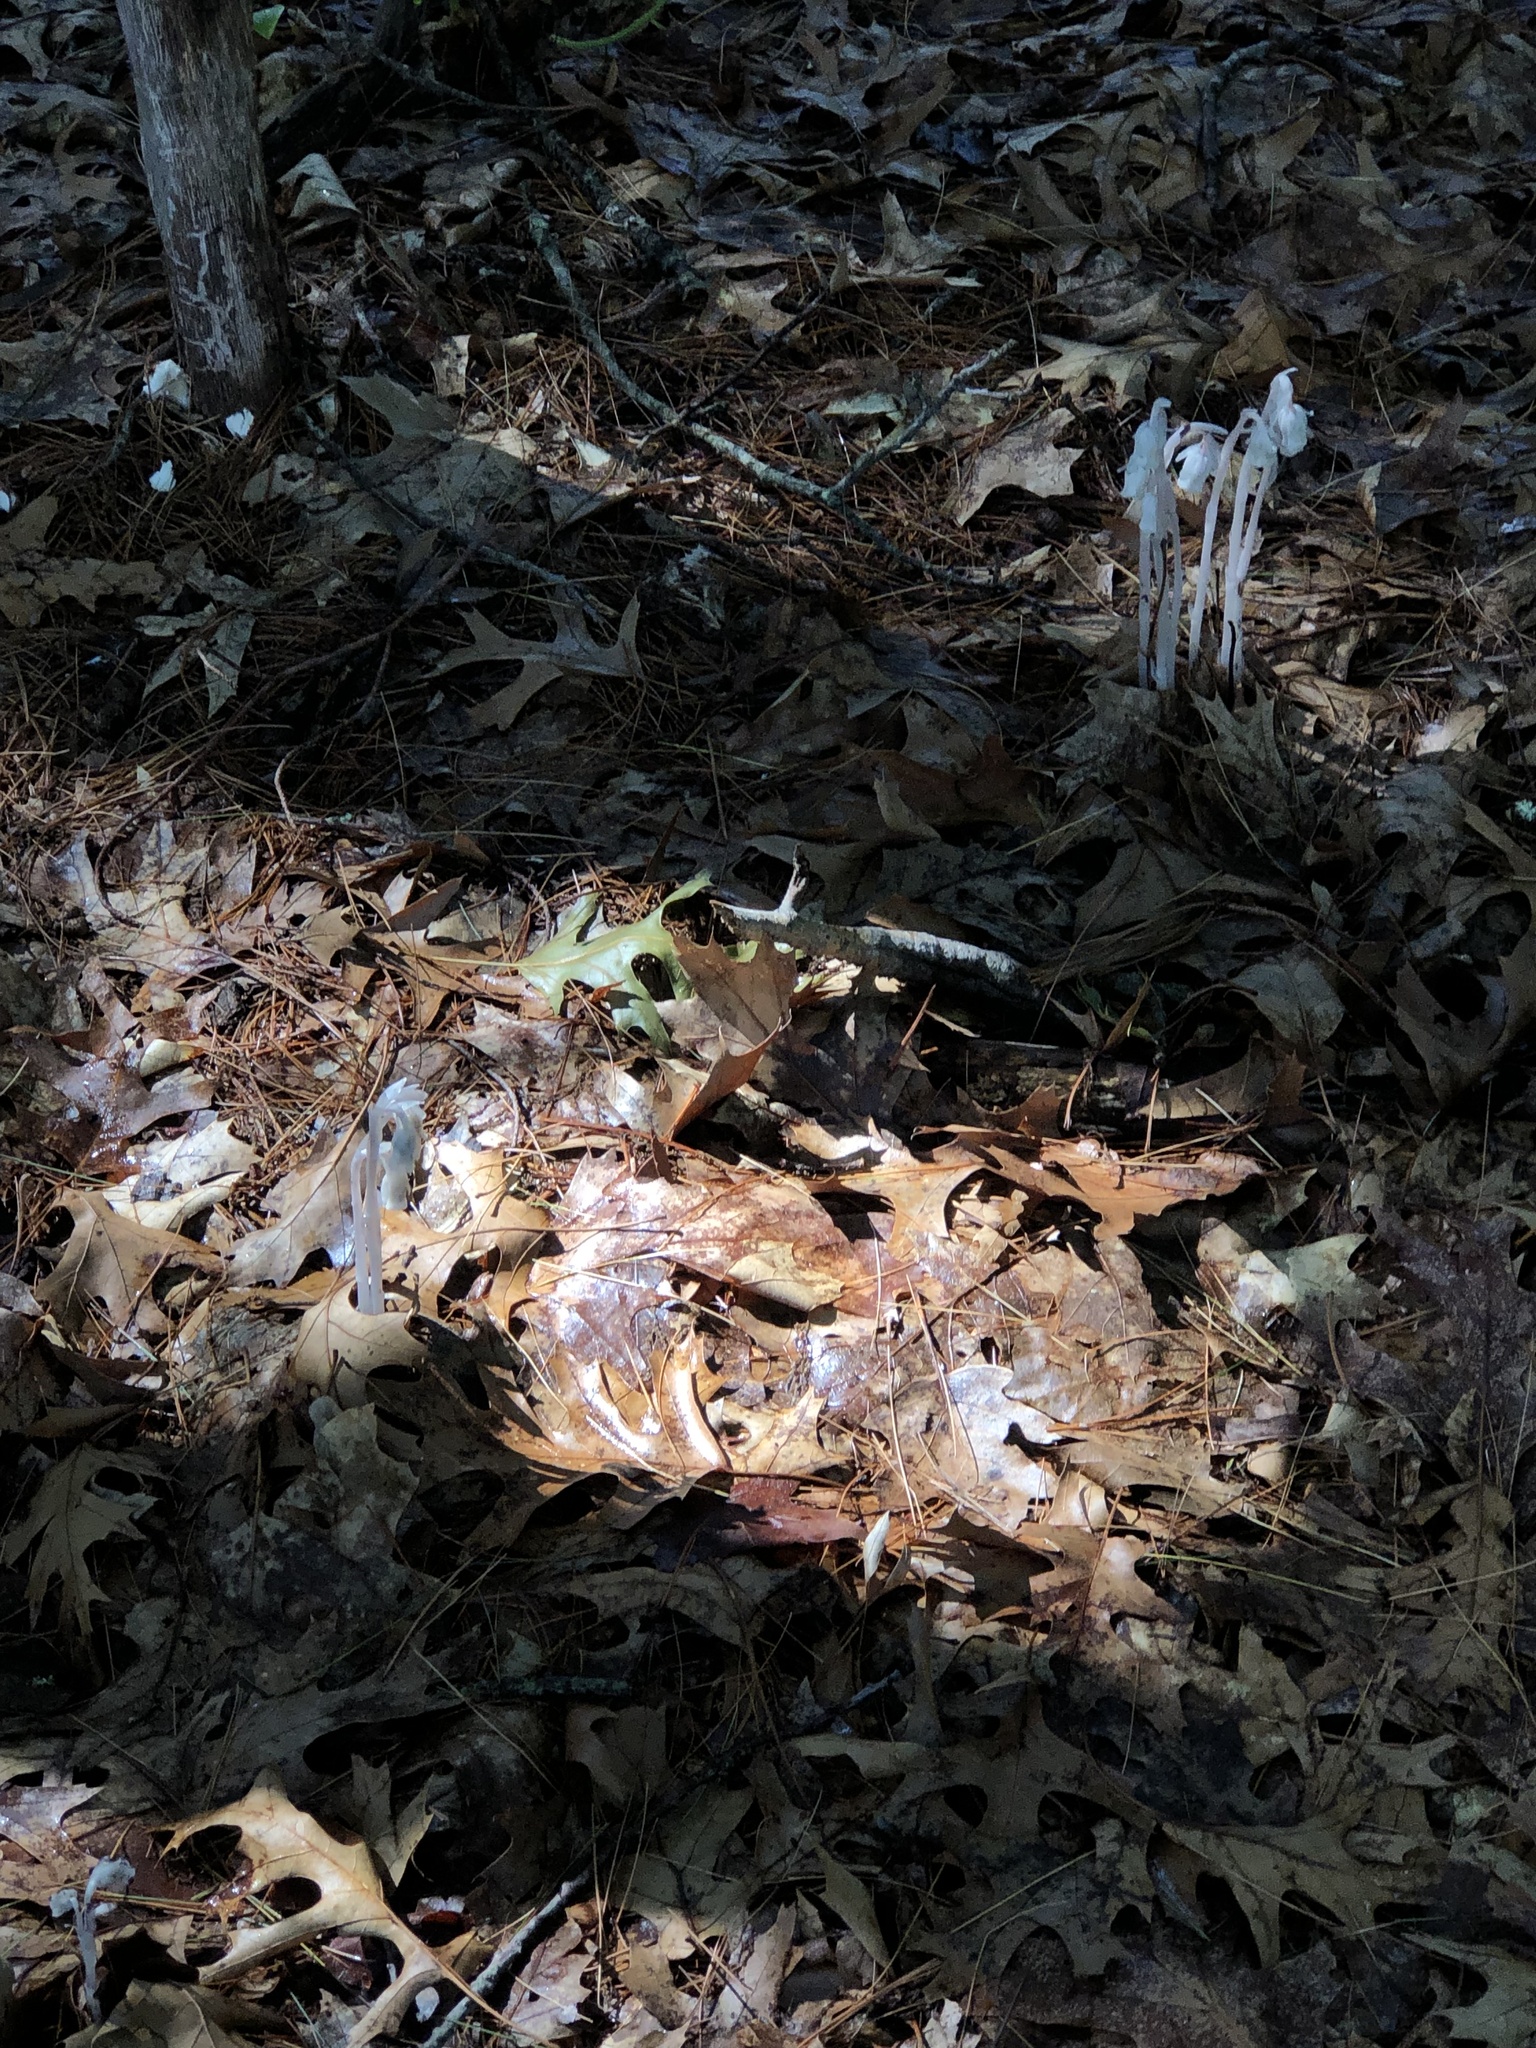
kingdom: Plantae
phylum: Tracheophyta
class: Magnoliopsida
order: Ericales
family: Ericaceae
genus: Monotropa
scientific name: Monotropa uniflora
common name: Convulsion root
